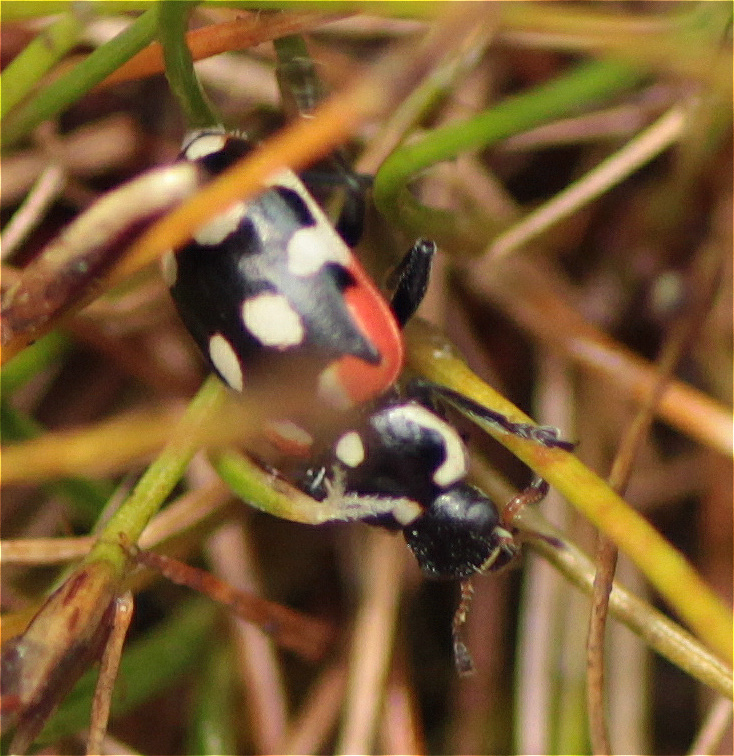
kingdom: Animalia
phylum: Arthropoda
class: Insecta
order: Coleoptera
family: Coccinellidae
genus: Eriopis
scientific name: Eriopis punicola
